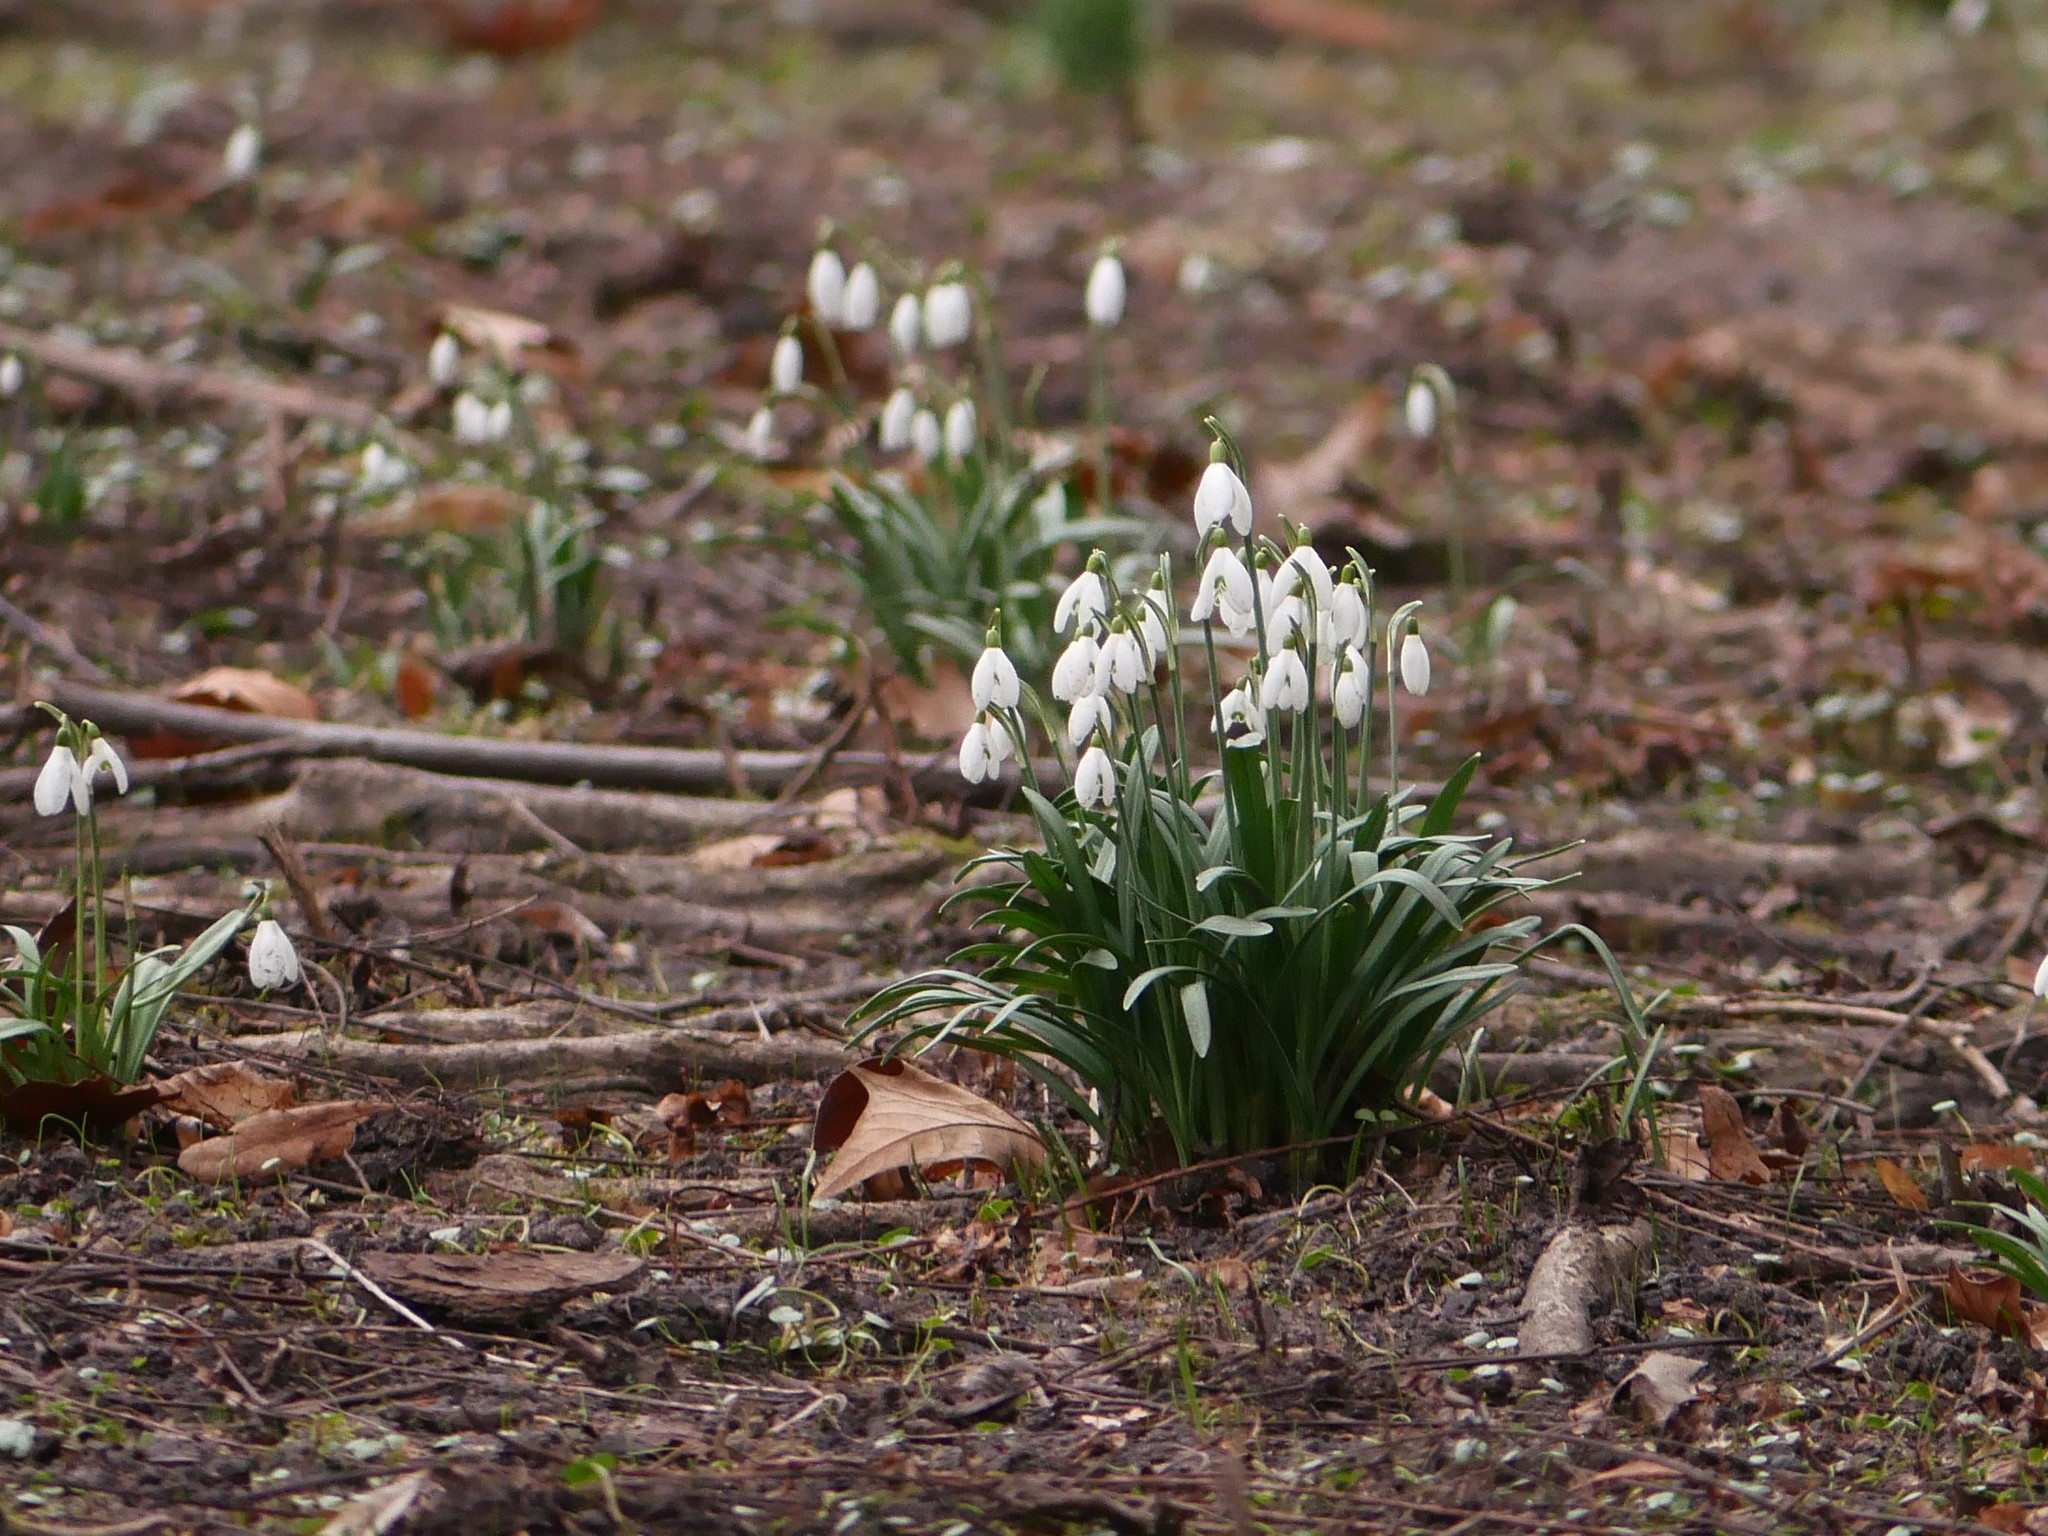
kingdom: Plantae
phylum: Tracheophyta
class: Liliopsida
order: Asparagales
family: Amaryllidaceae
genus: Galanthus
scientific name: Galanthus nivalis
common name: Snowdrop
